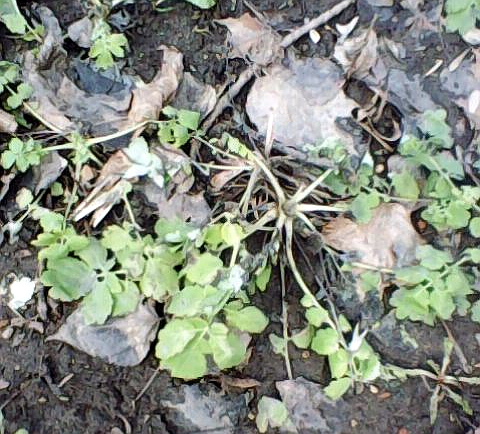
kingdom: Plantae
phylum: Tracheophyta
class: Magnoliopsida
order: Ranunculales
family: Papaveraceae
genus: Chelidonium
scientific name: Chelidonium majus
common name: Greater celandine
